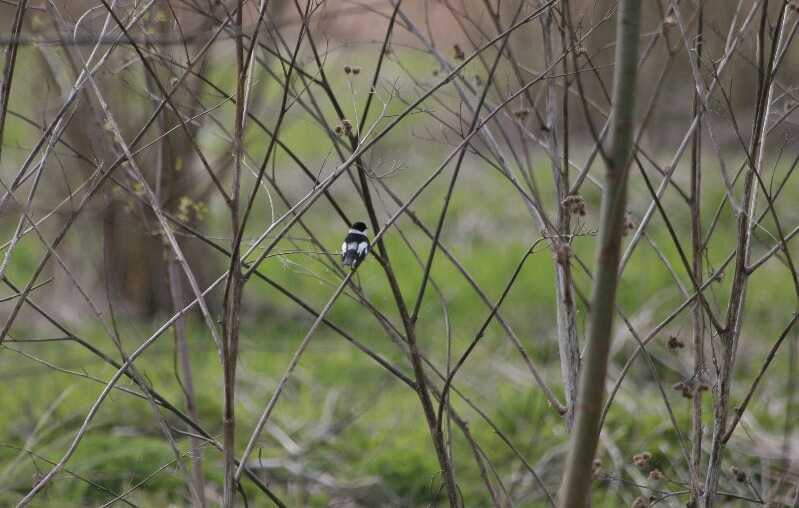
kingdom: Animalia
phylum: Chordata
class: Aves
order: Passeriformes
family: Muscicapidae
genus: Ficedula
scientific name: Ficedula albicollis
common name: Collared flycatcher
